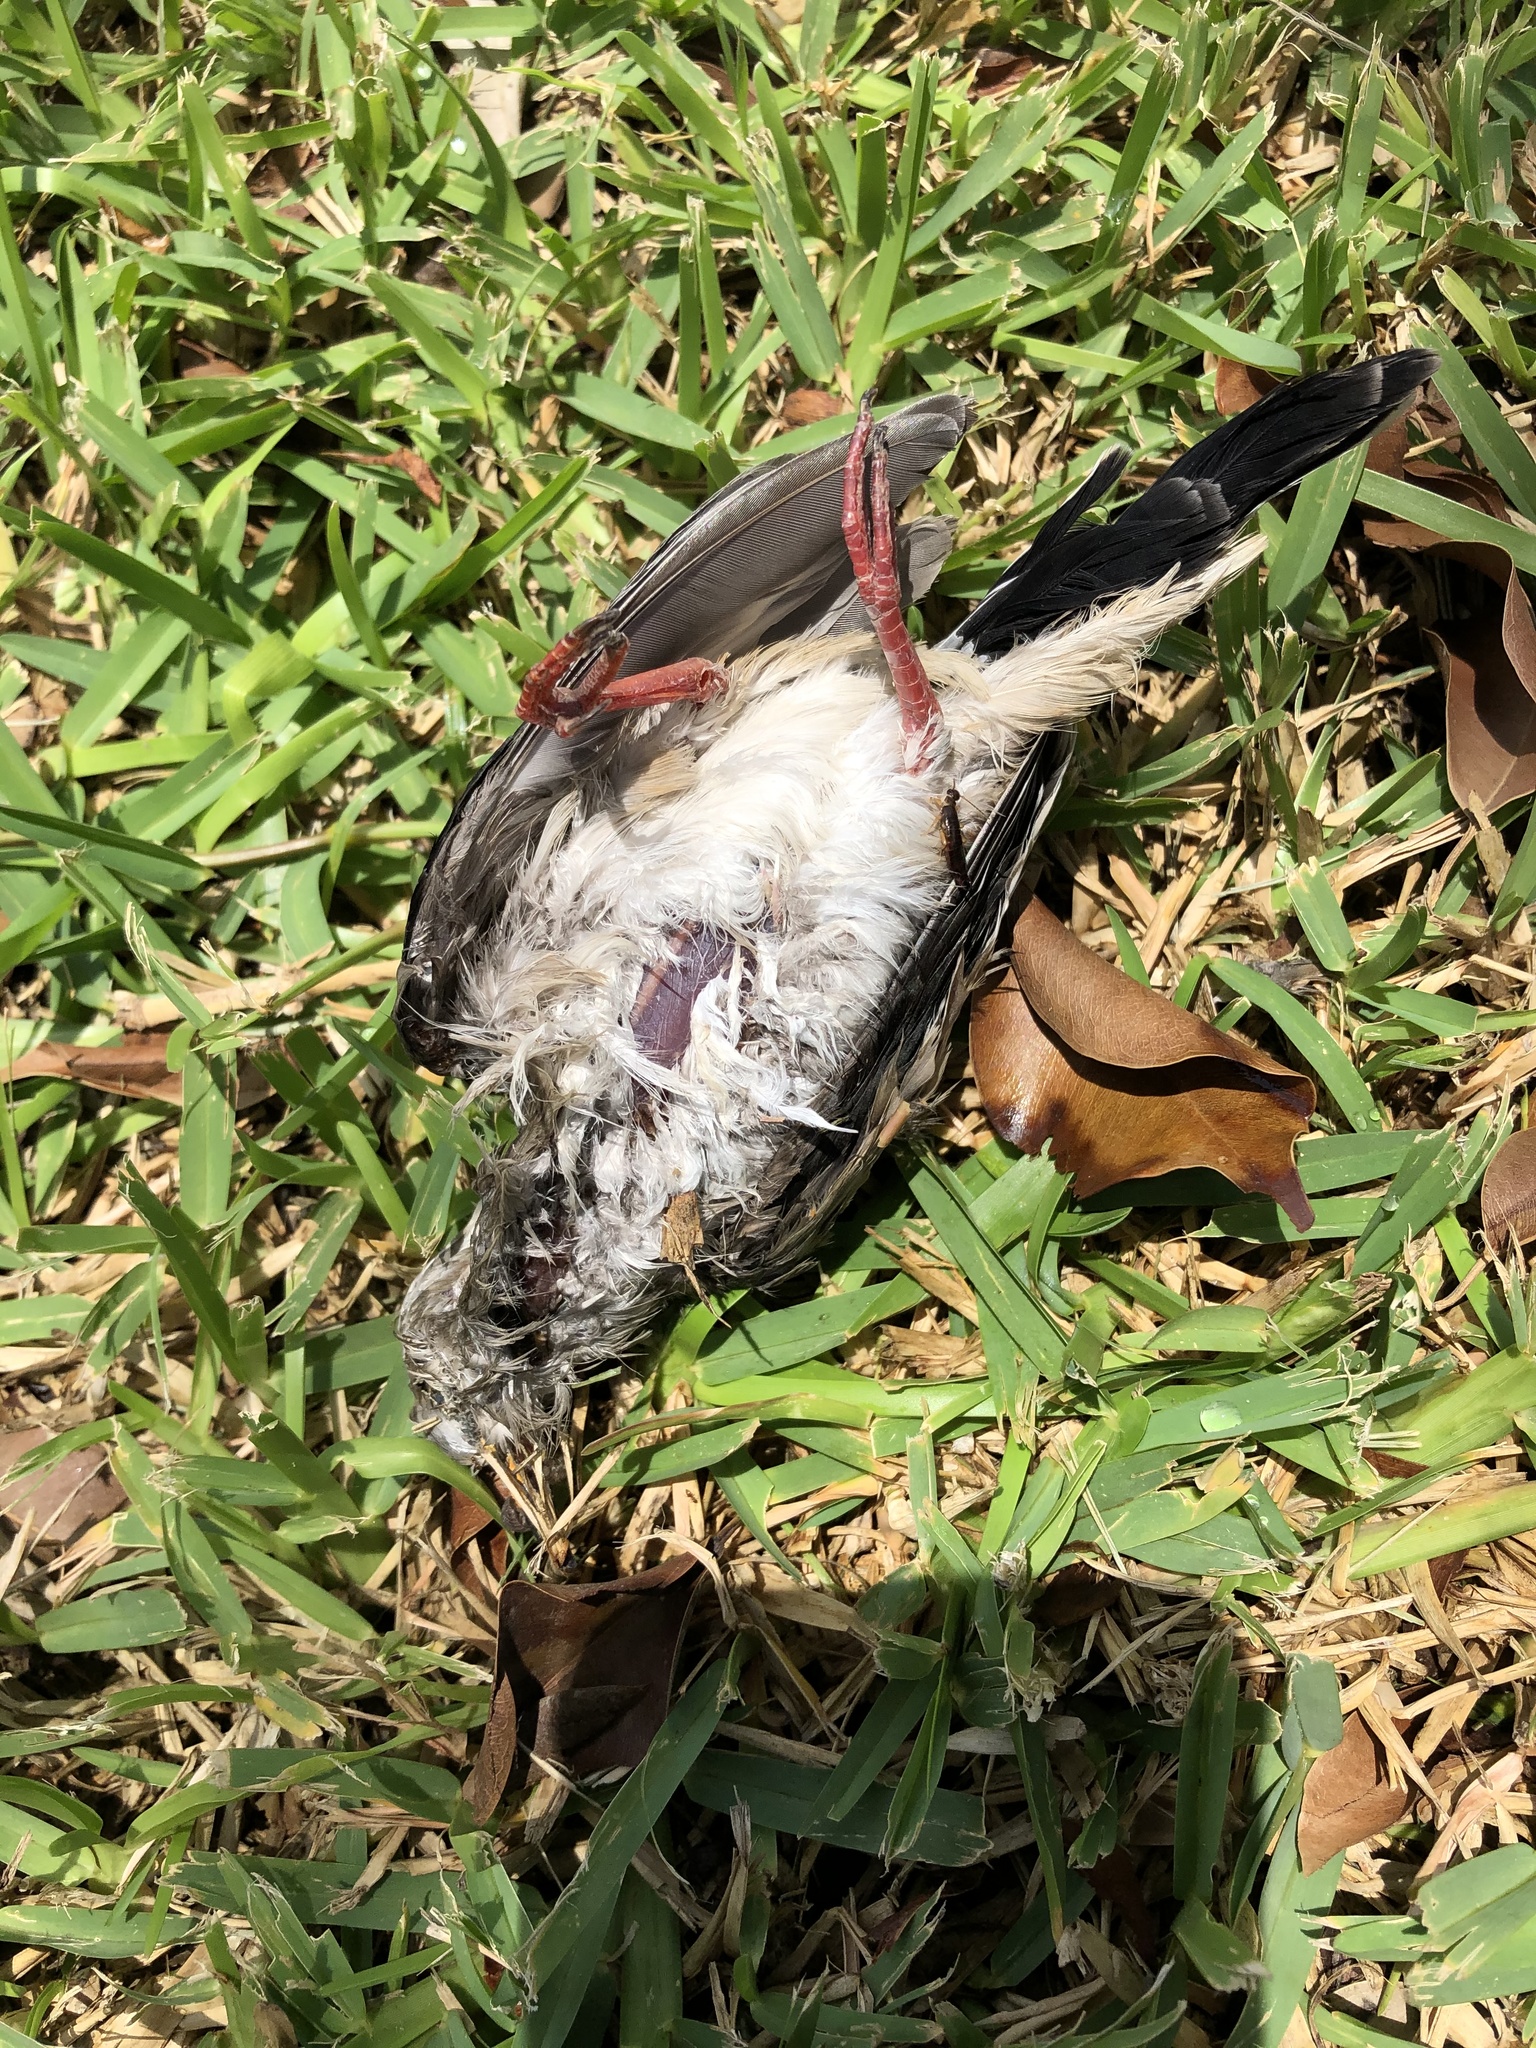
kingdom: Animalia
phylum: Chordata
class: Aves
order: Columbiformes
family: Columbidae
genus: Columbina
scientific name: Columbina cruziana
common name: Croaking ground dove
